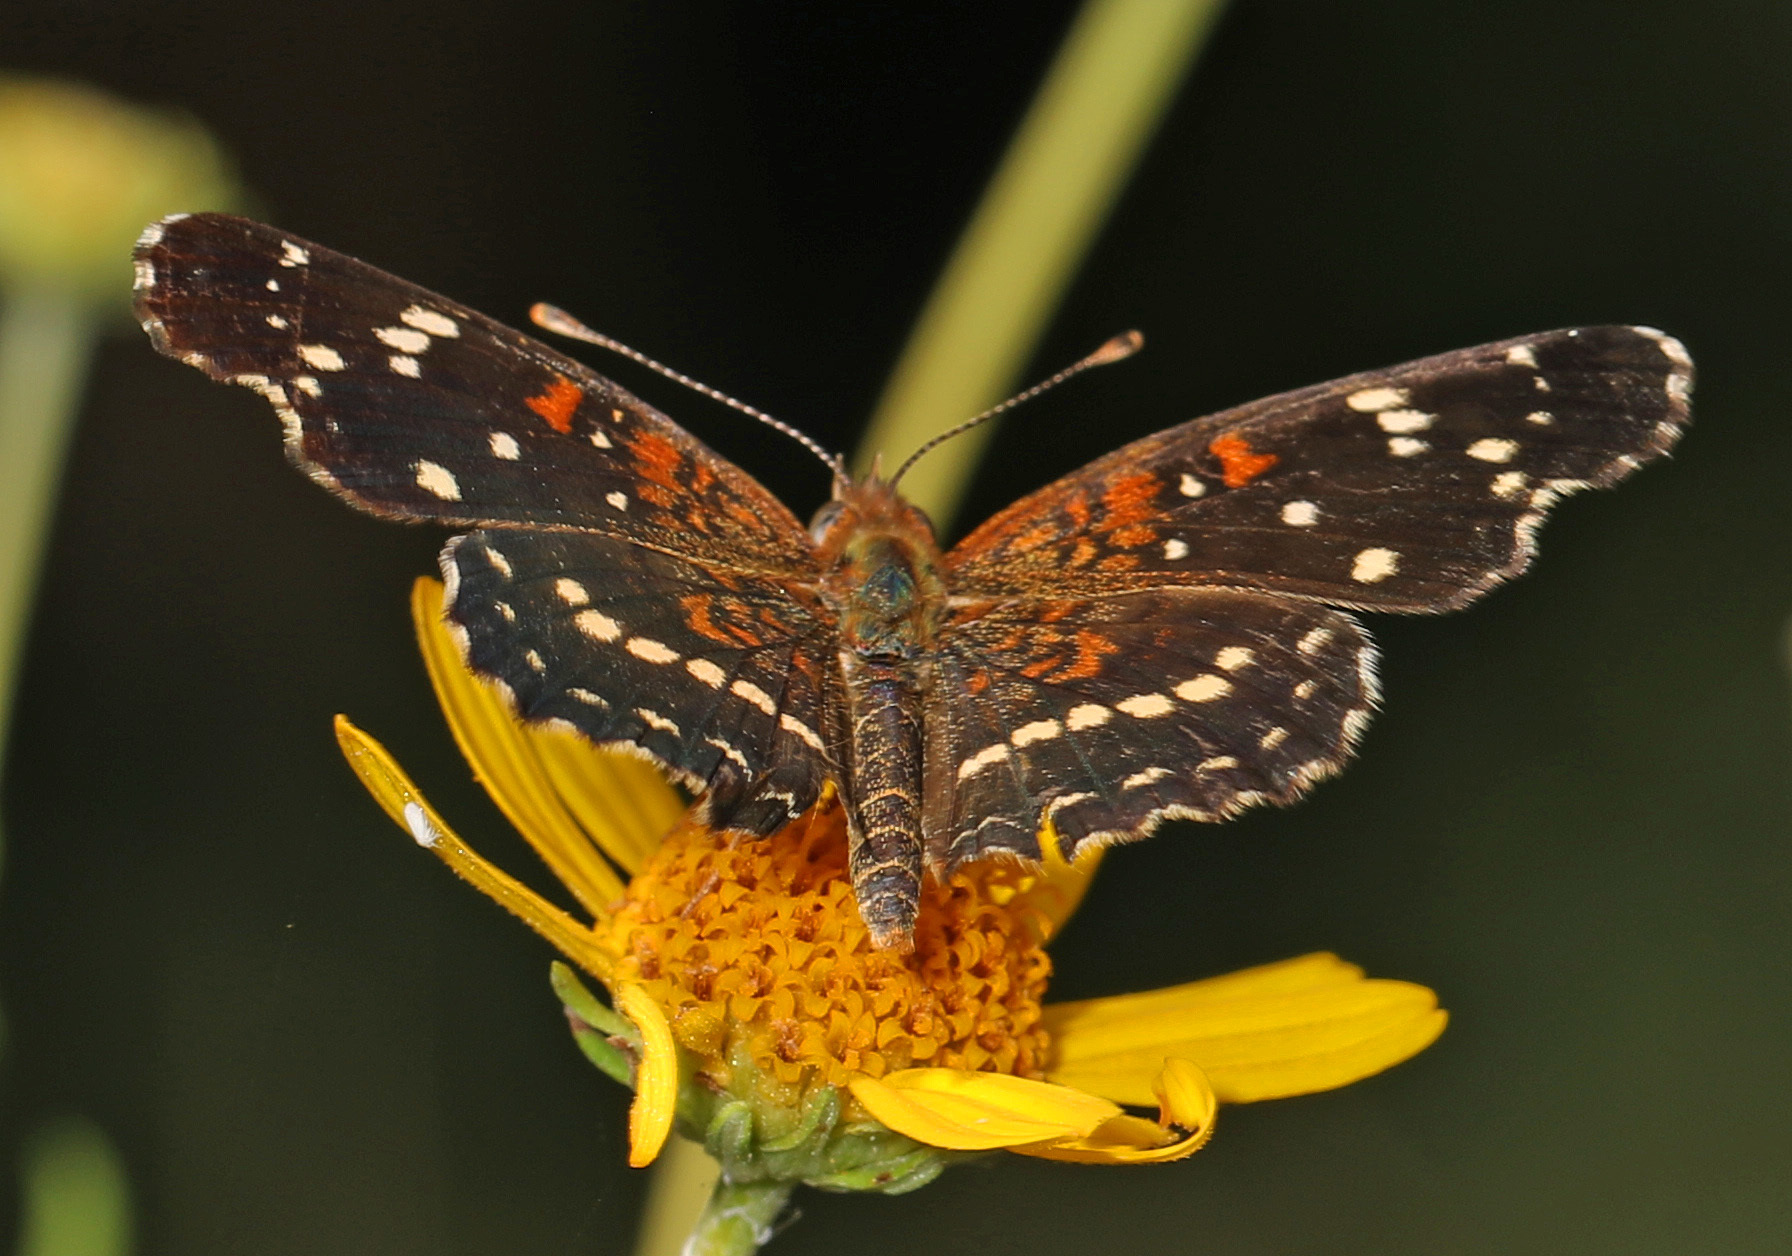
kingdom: Animalia
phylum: Arthropoda
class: Insecta
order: Lepidoptera
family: Nymphalidae
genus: Anthanassa
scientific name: Anthanassa texana
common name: Texan crescent
